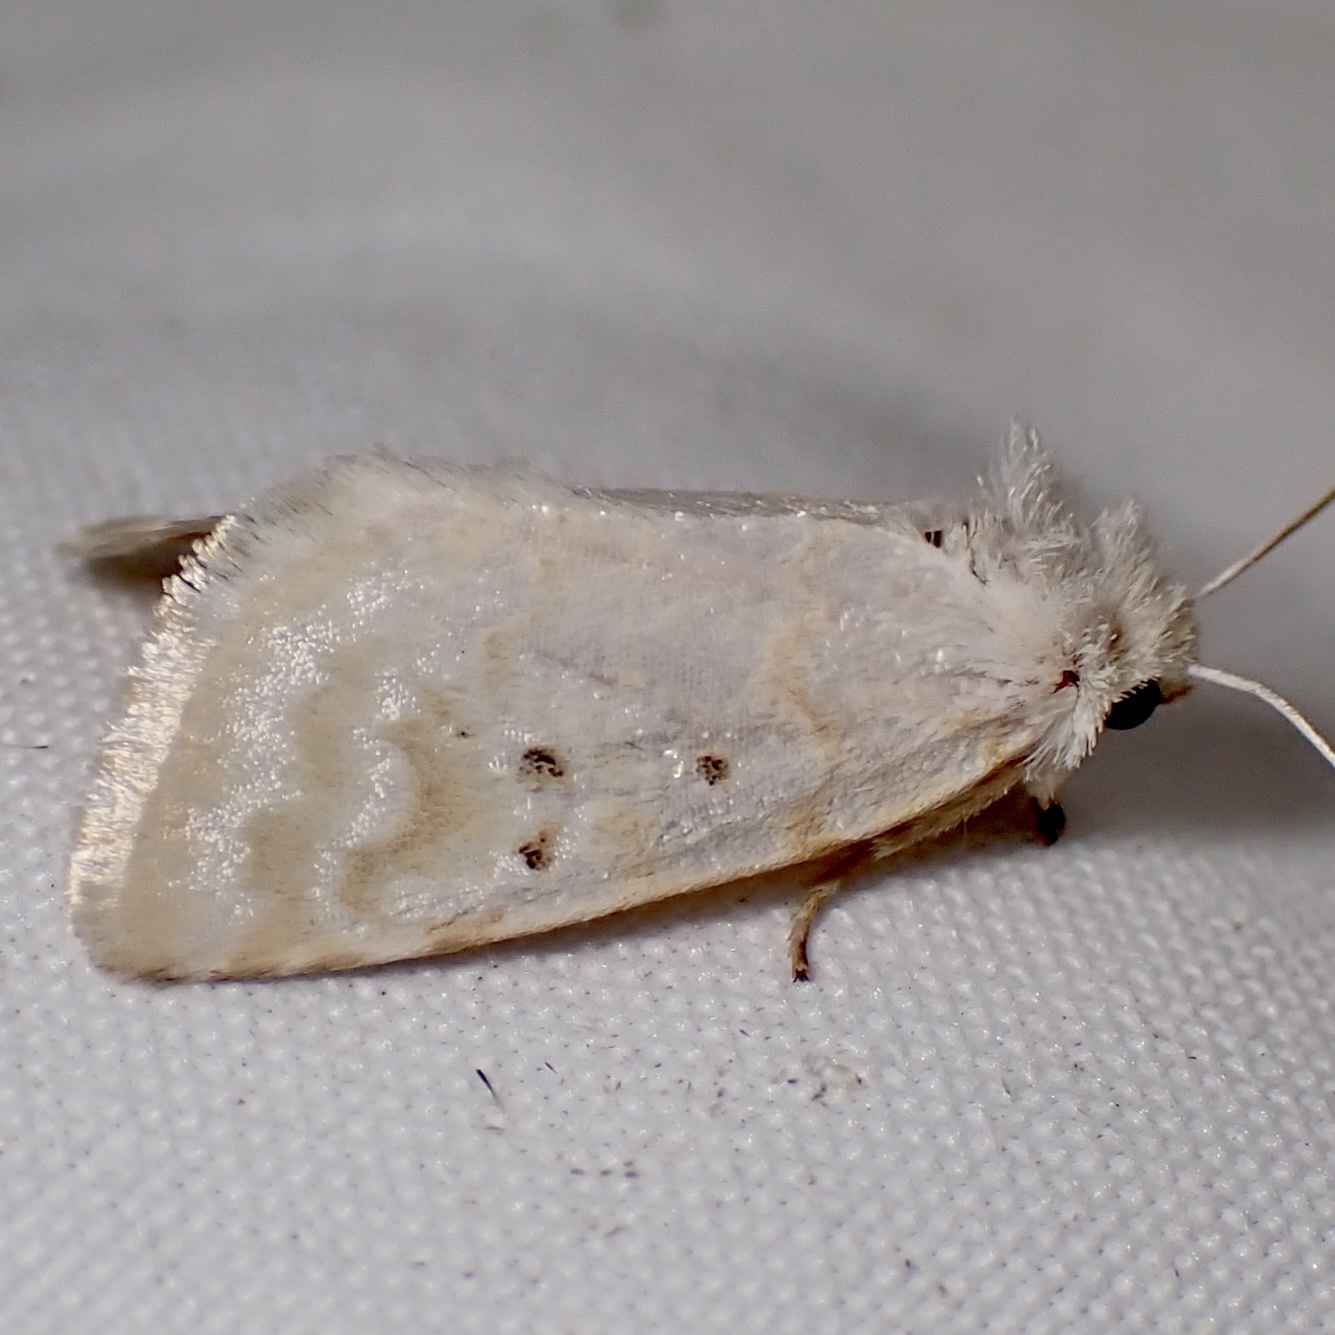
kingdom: Animalia
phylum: Arthropoda
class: Insecta
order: Lepidoptera
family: Noctuidae
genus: Lythrodes
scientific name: Lythrodes tripuncta
